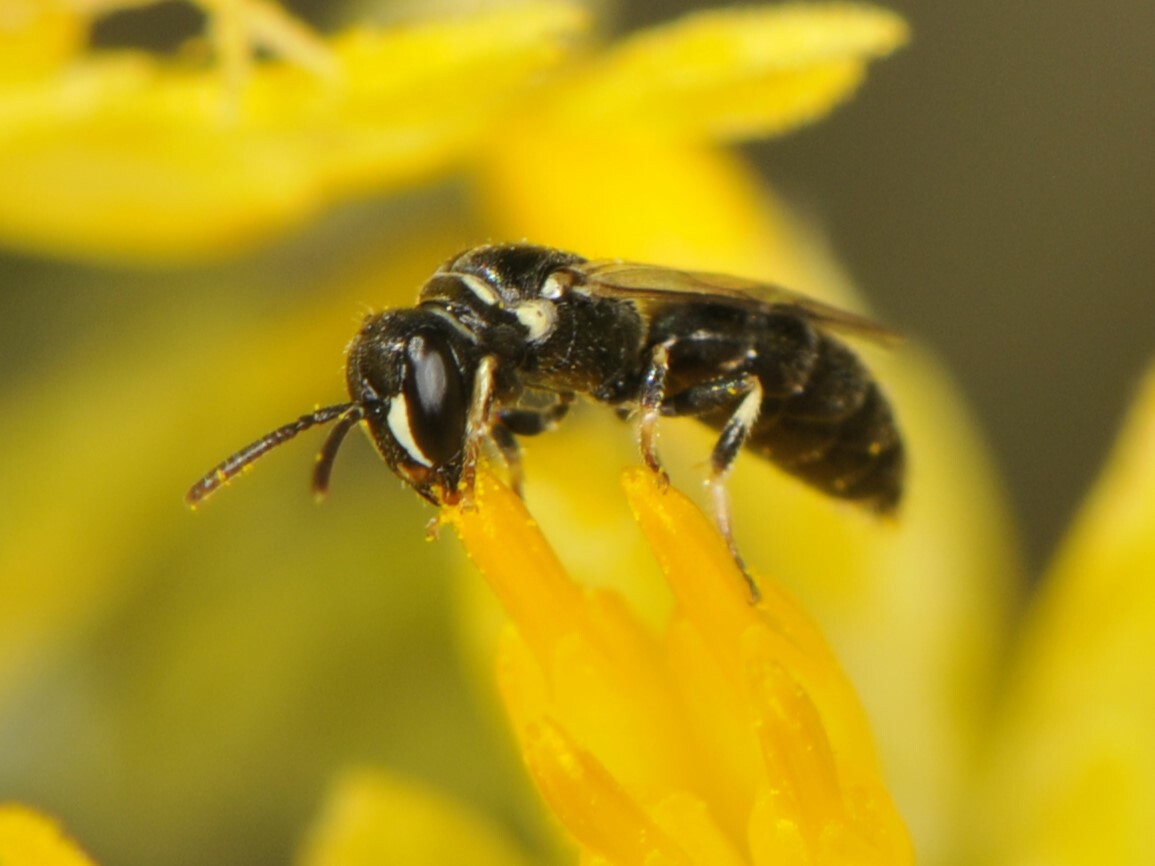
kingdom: Animalia
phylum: Arthropoda
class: Insecta
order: Hymenoptera
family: Colletidae
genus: Hylaeus
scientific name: Hylaeus
